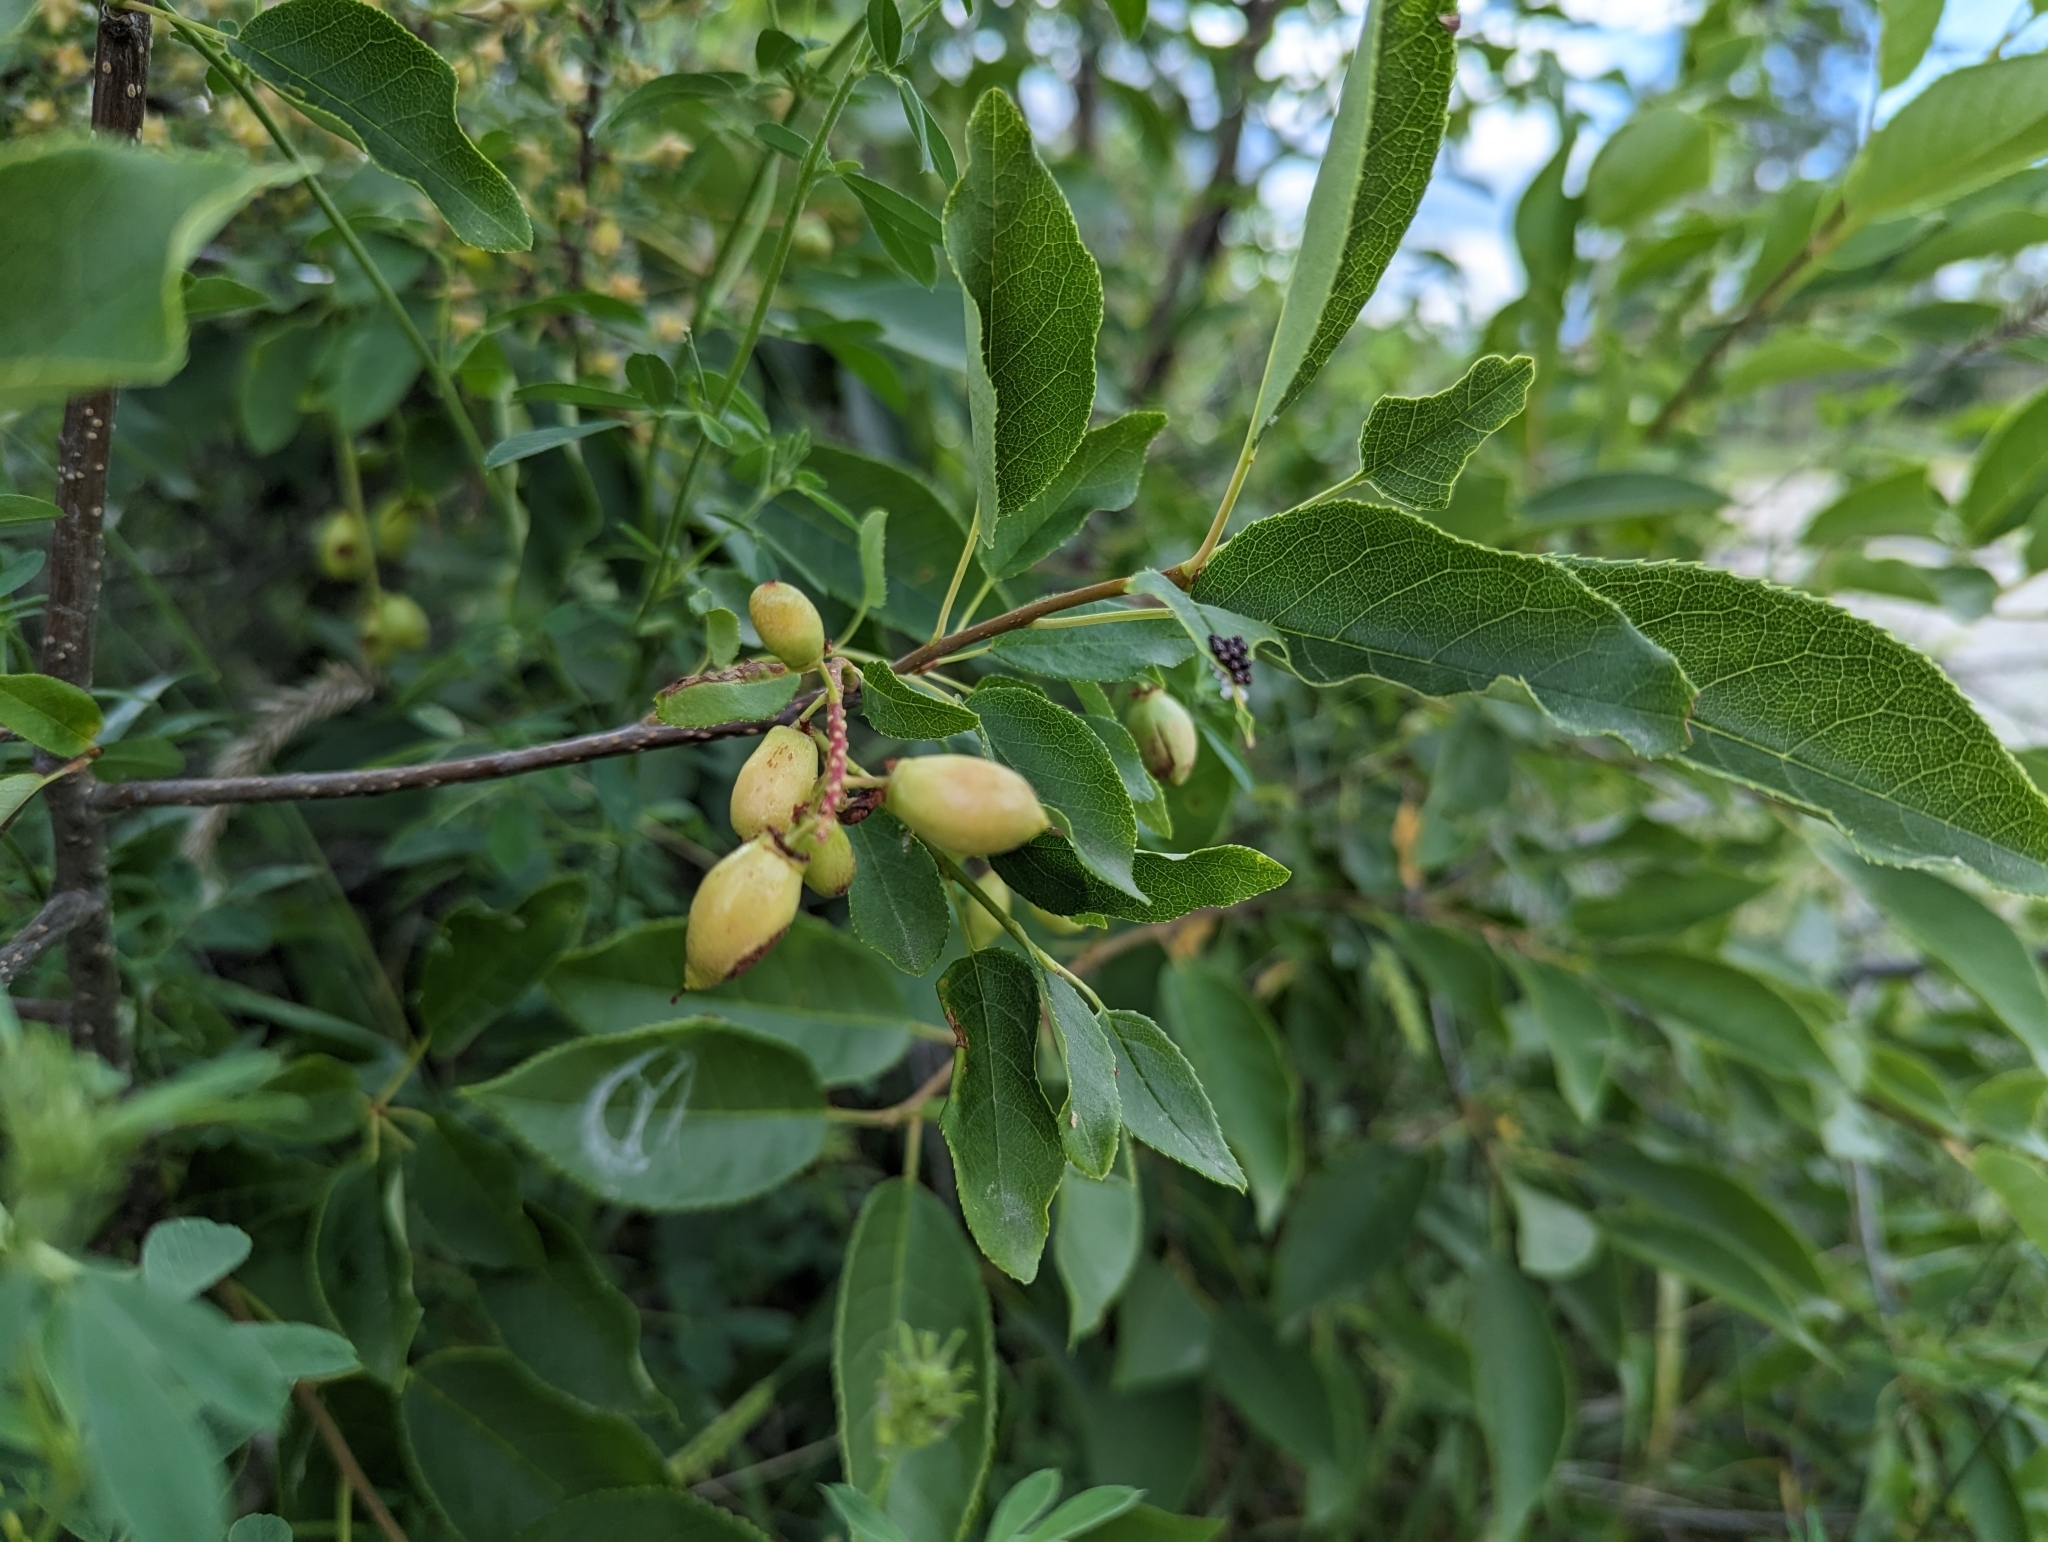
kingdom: Plantae
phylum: Tracheophyta
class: Magnoliopsida
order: Rosales
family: Rosaceae
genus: Prunus
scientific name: Prunus virginiana
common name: Chokecherry
